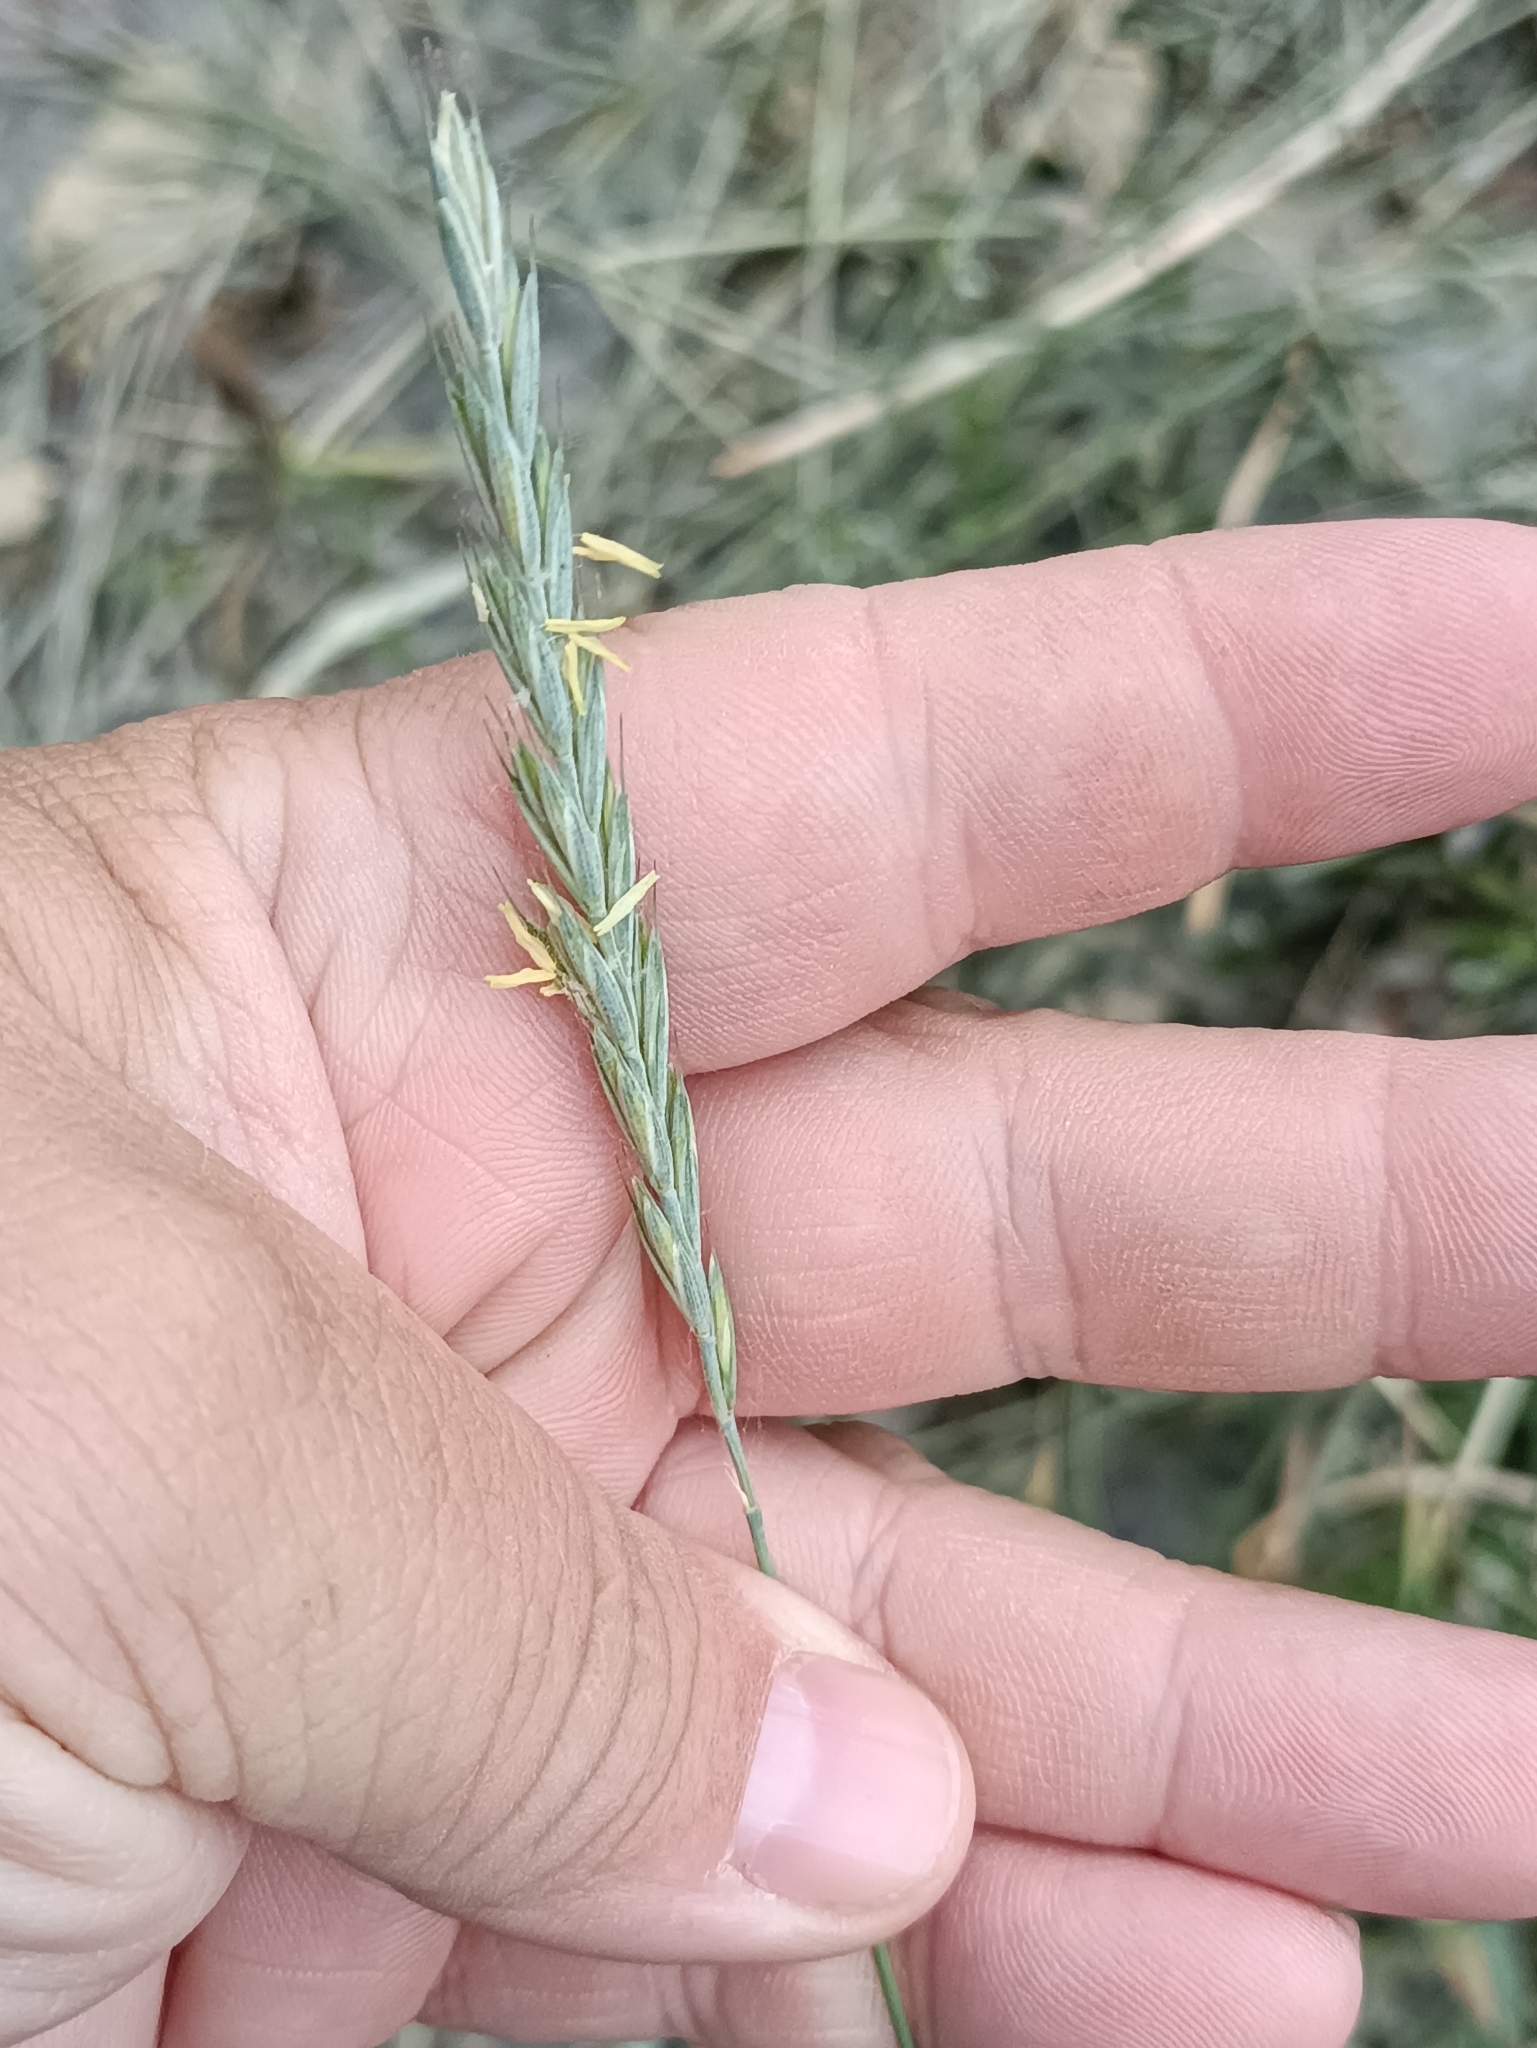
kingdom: Plantae
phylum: Tracheophyta
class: Liliopsida
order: Poales
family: Poaceae
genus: Elymus
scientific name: Elymus repens
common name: Quackgrass
